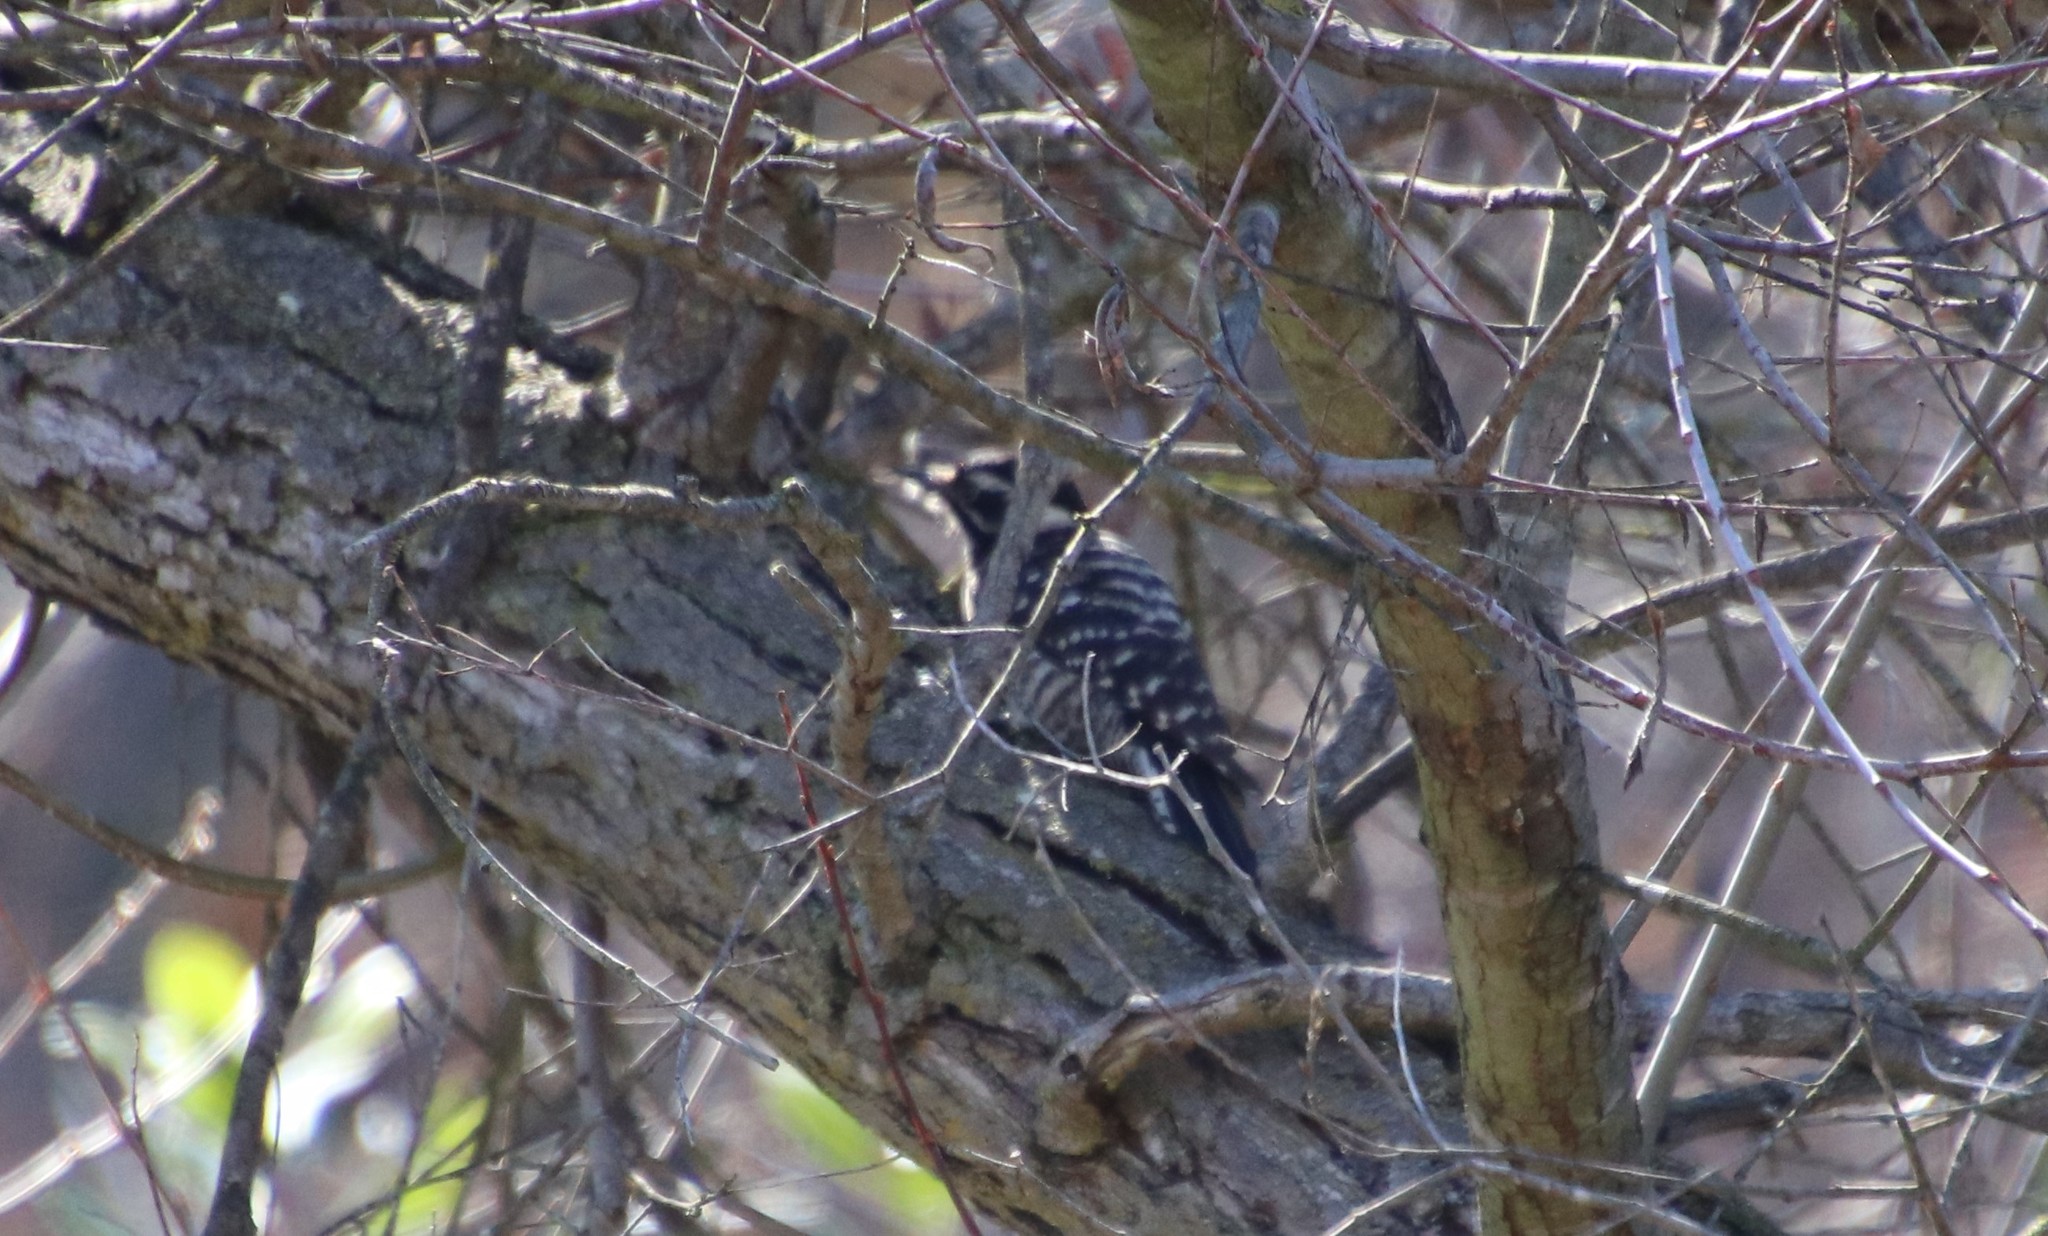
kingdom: Animalia
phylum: Chordata
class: Aves
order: Piciformes
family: Picidae
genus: Dryobates
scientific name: Dryobates nuttallii
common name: Nuttall's woodpecker
